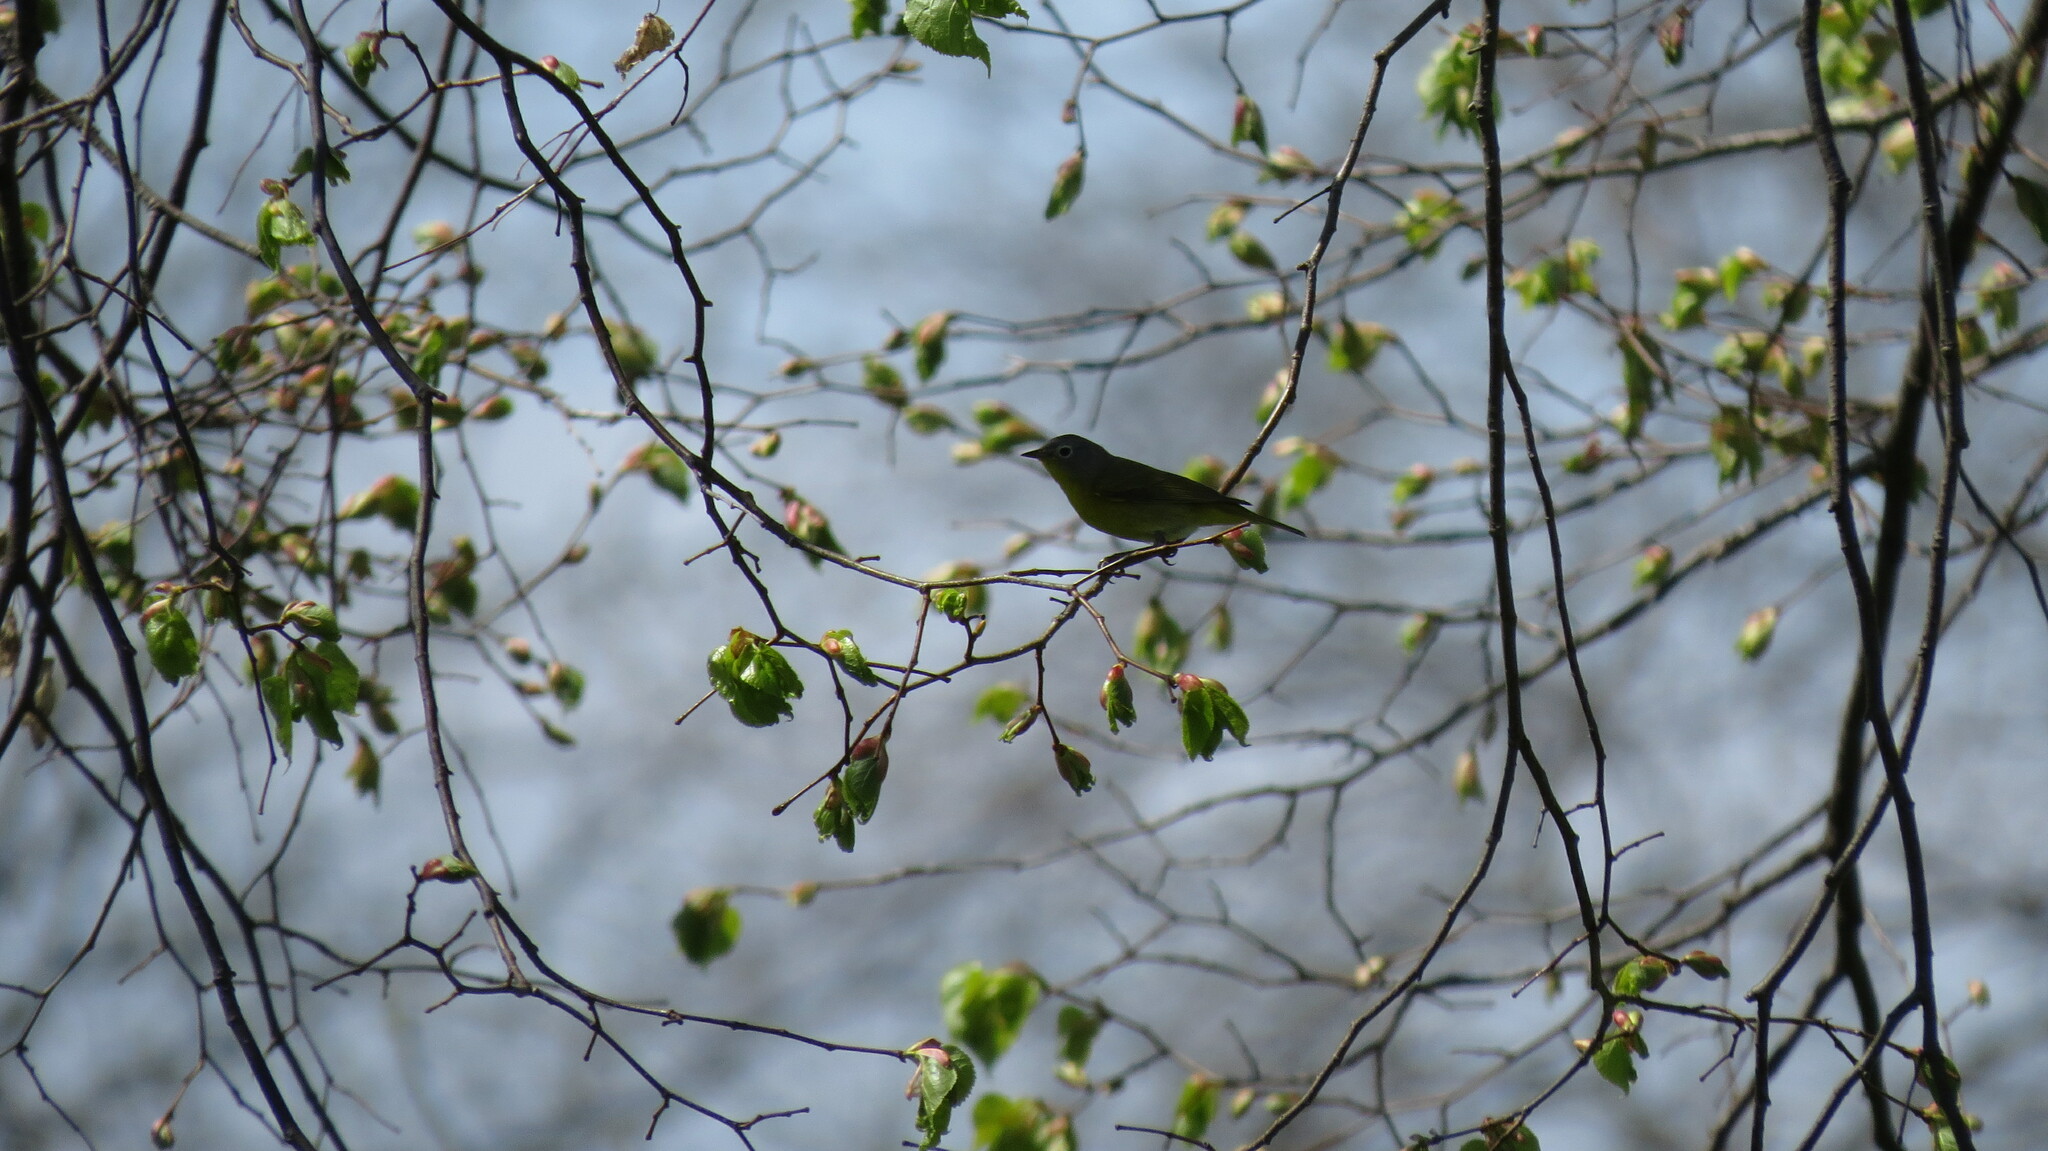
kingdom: Animalia
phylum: Chordata
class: Aves
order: Passeriformes
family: Parulidae
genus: Leiothlypis
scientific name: Leiothlypis ruficapilla
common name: Nashville warbler
